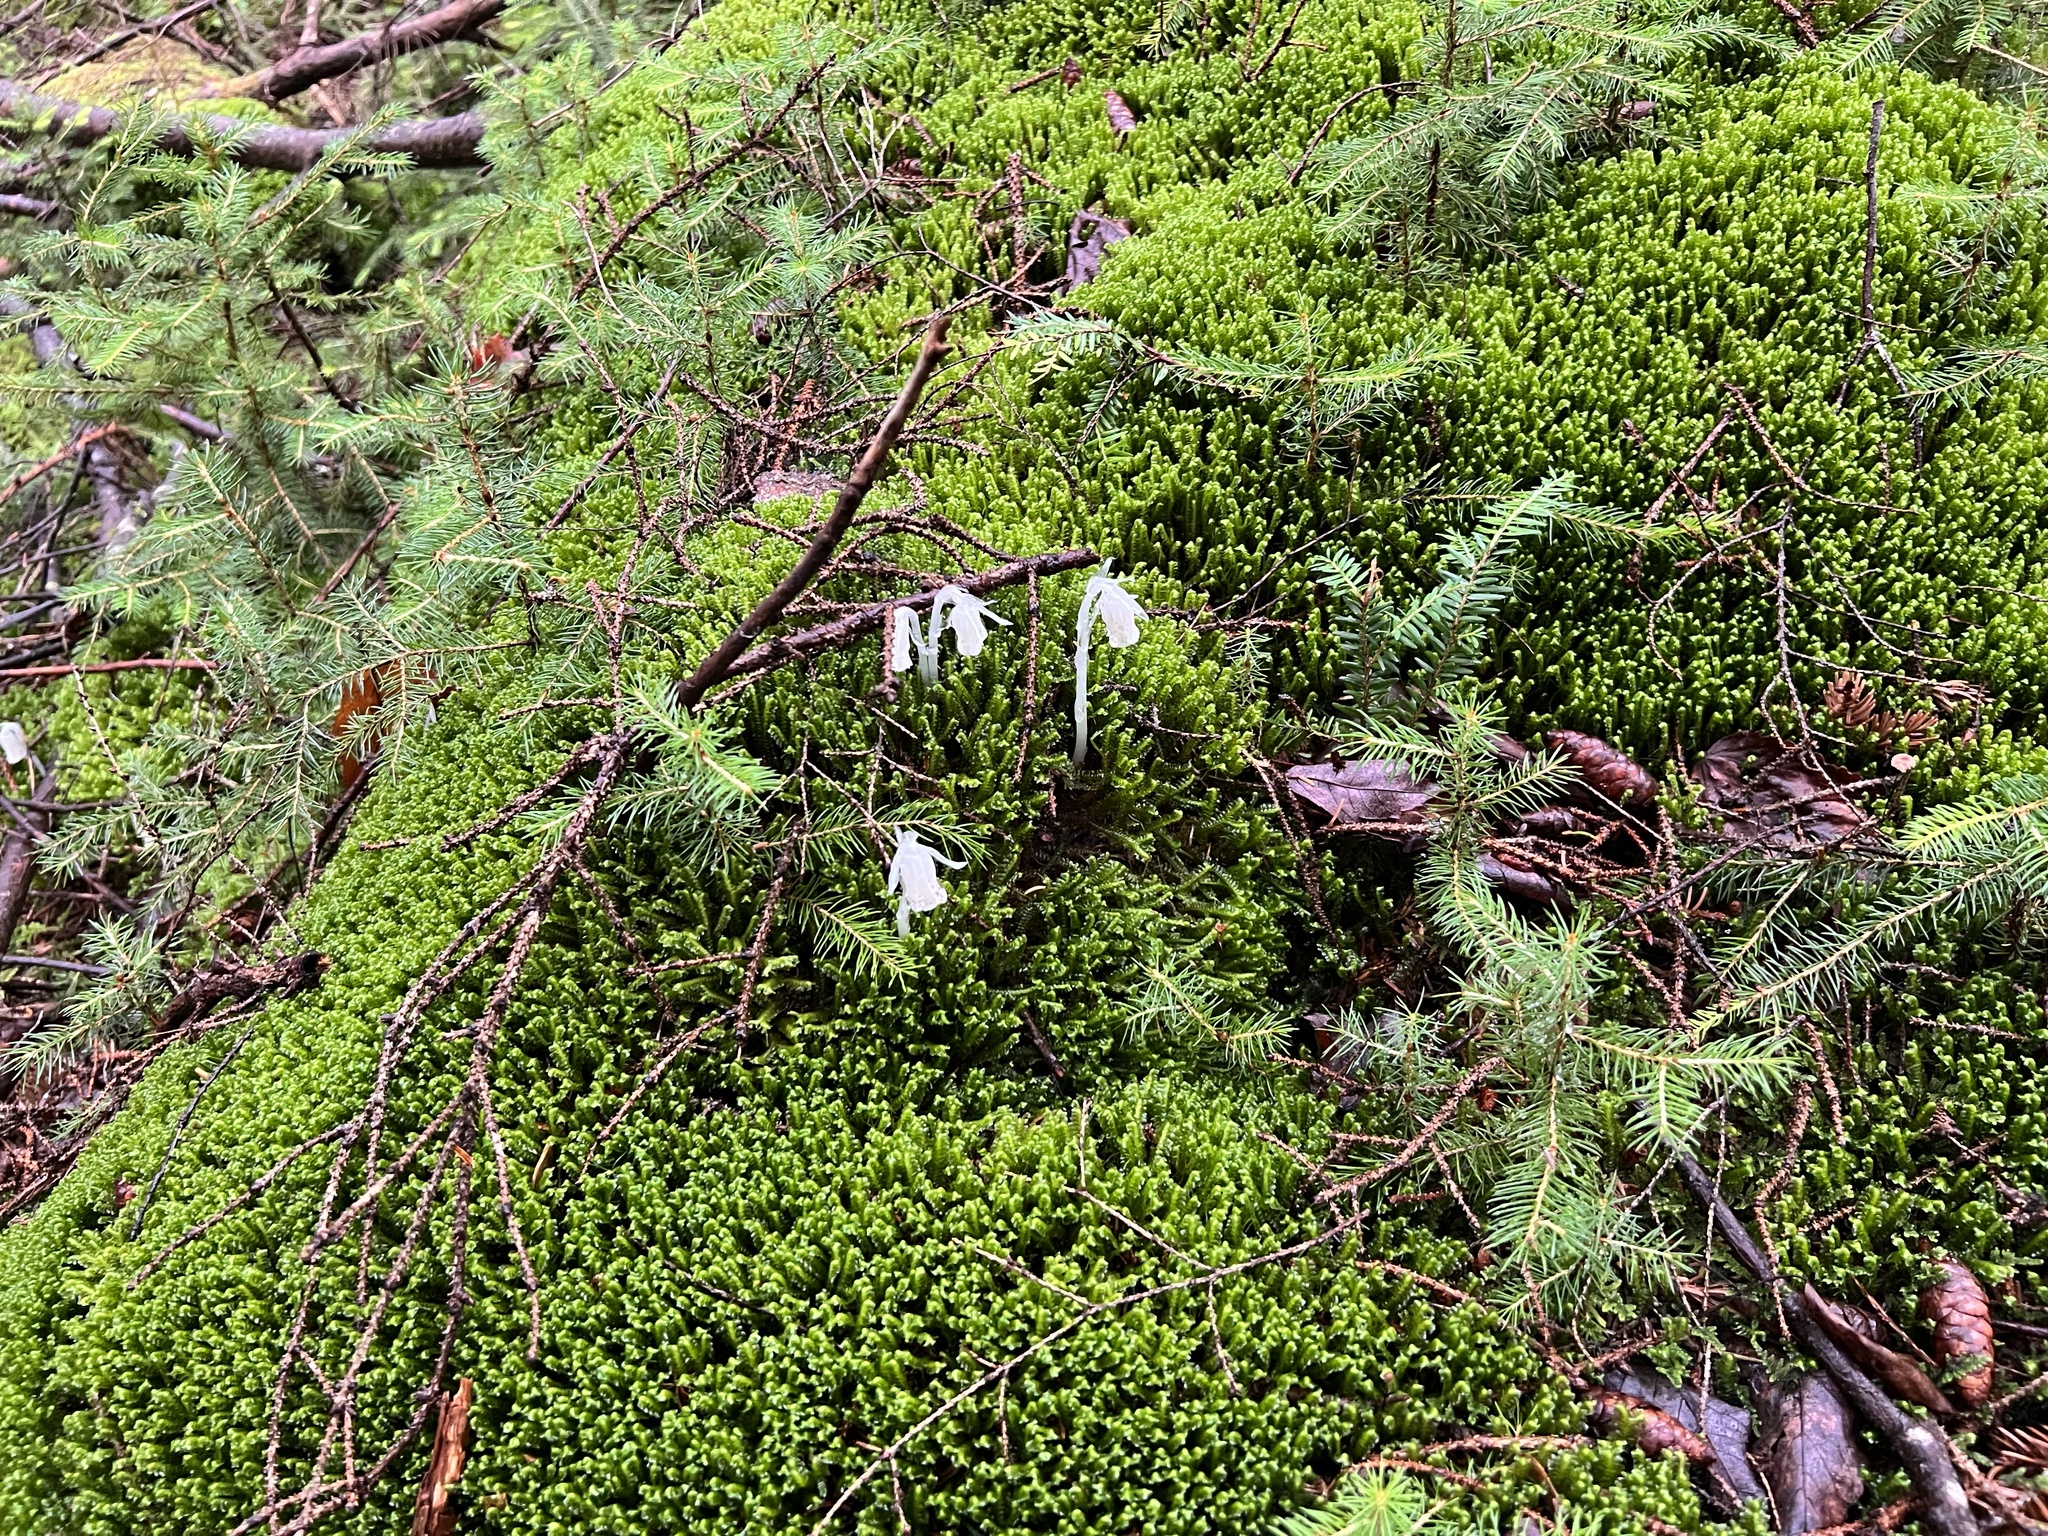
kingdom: Plantae
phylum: Tracheophyta
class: Magnoliopsida
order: Ericales
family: Ericaceae
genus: Monotropa
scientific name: Monotropa uniflora
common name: Convulsion root
